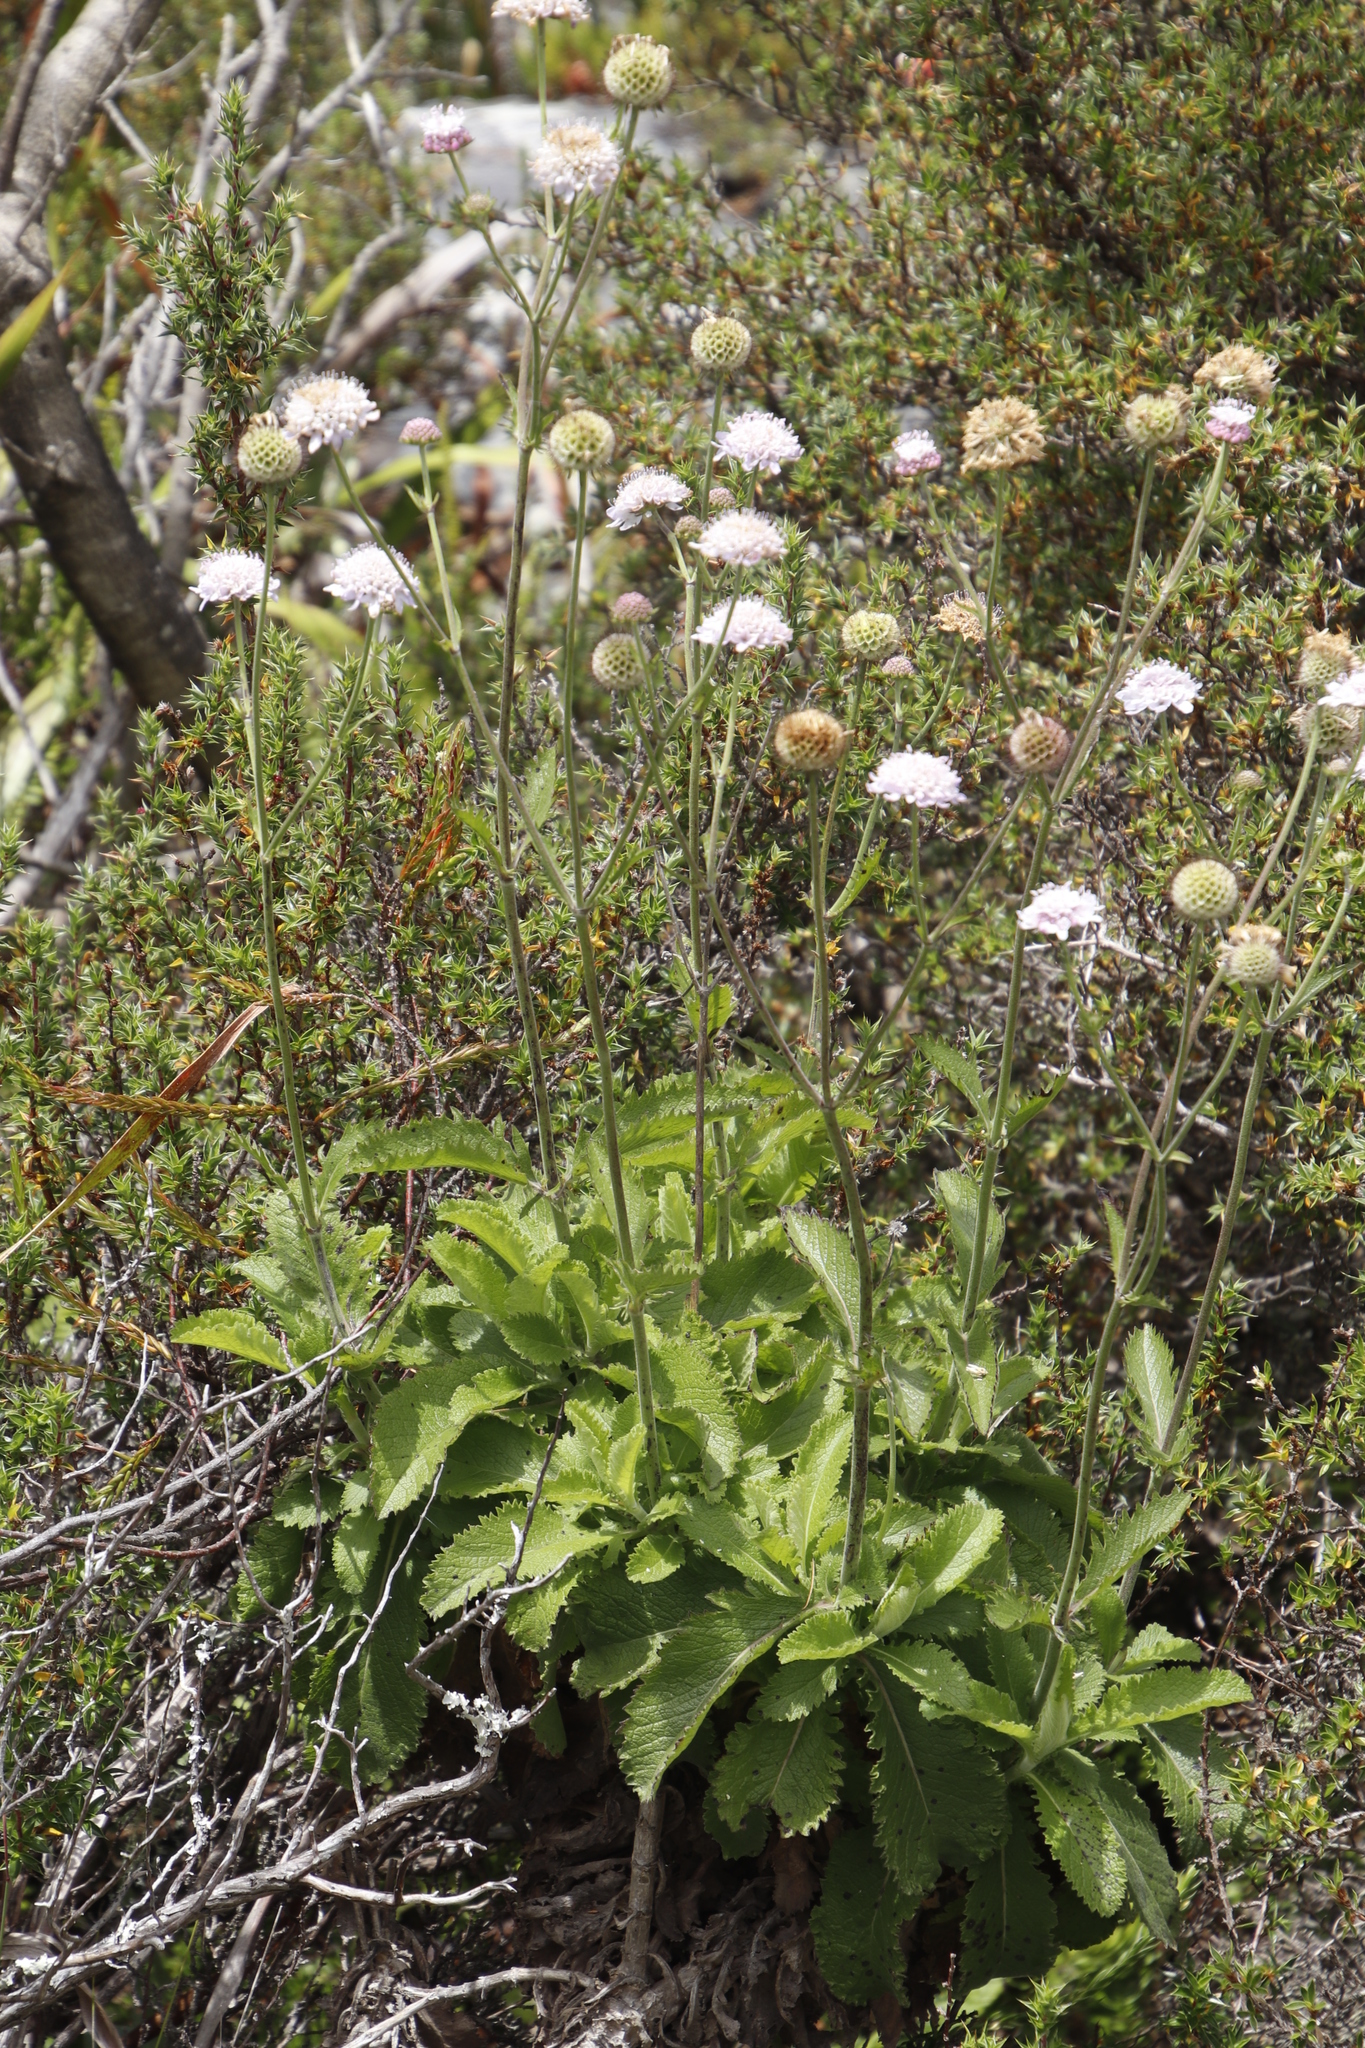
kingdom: Plantae
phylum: Tracheophyta
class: Magnoliopsida
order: Dipsacales
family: Caprifoliaceae
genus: Scabiosa
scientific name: Scabiosa africana
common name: Cape scabious
